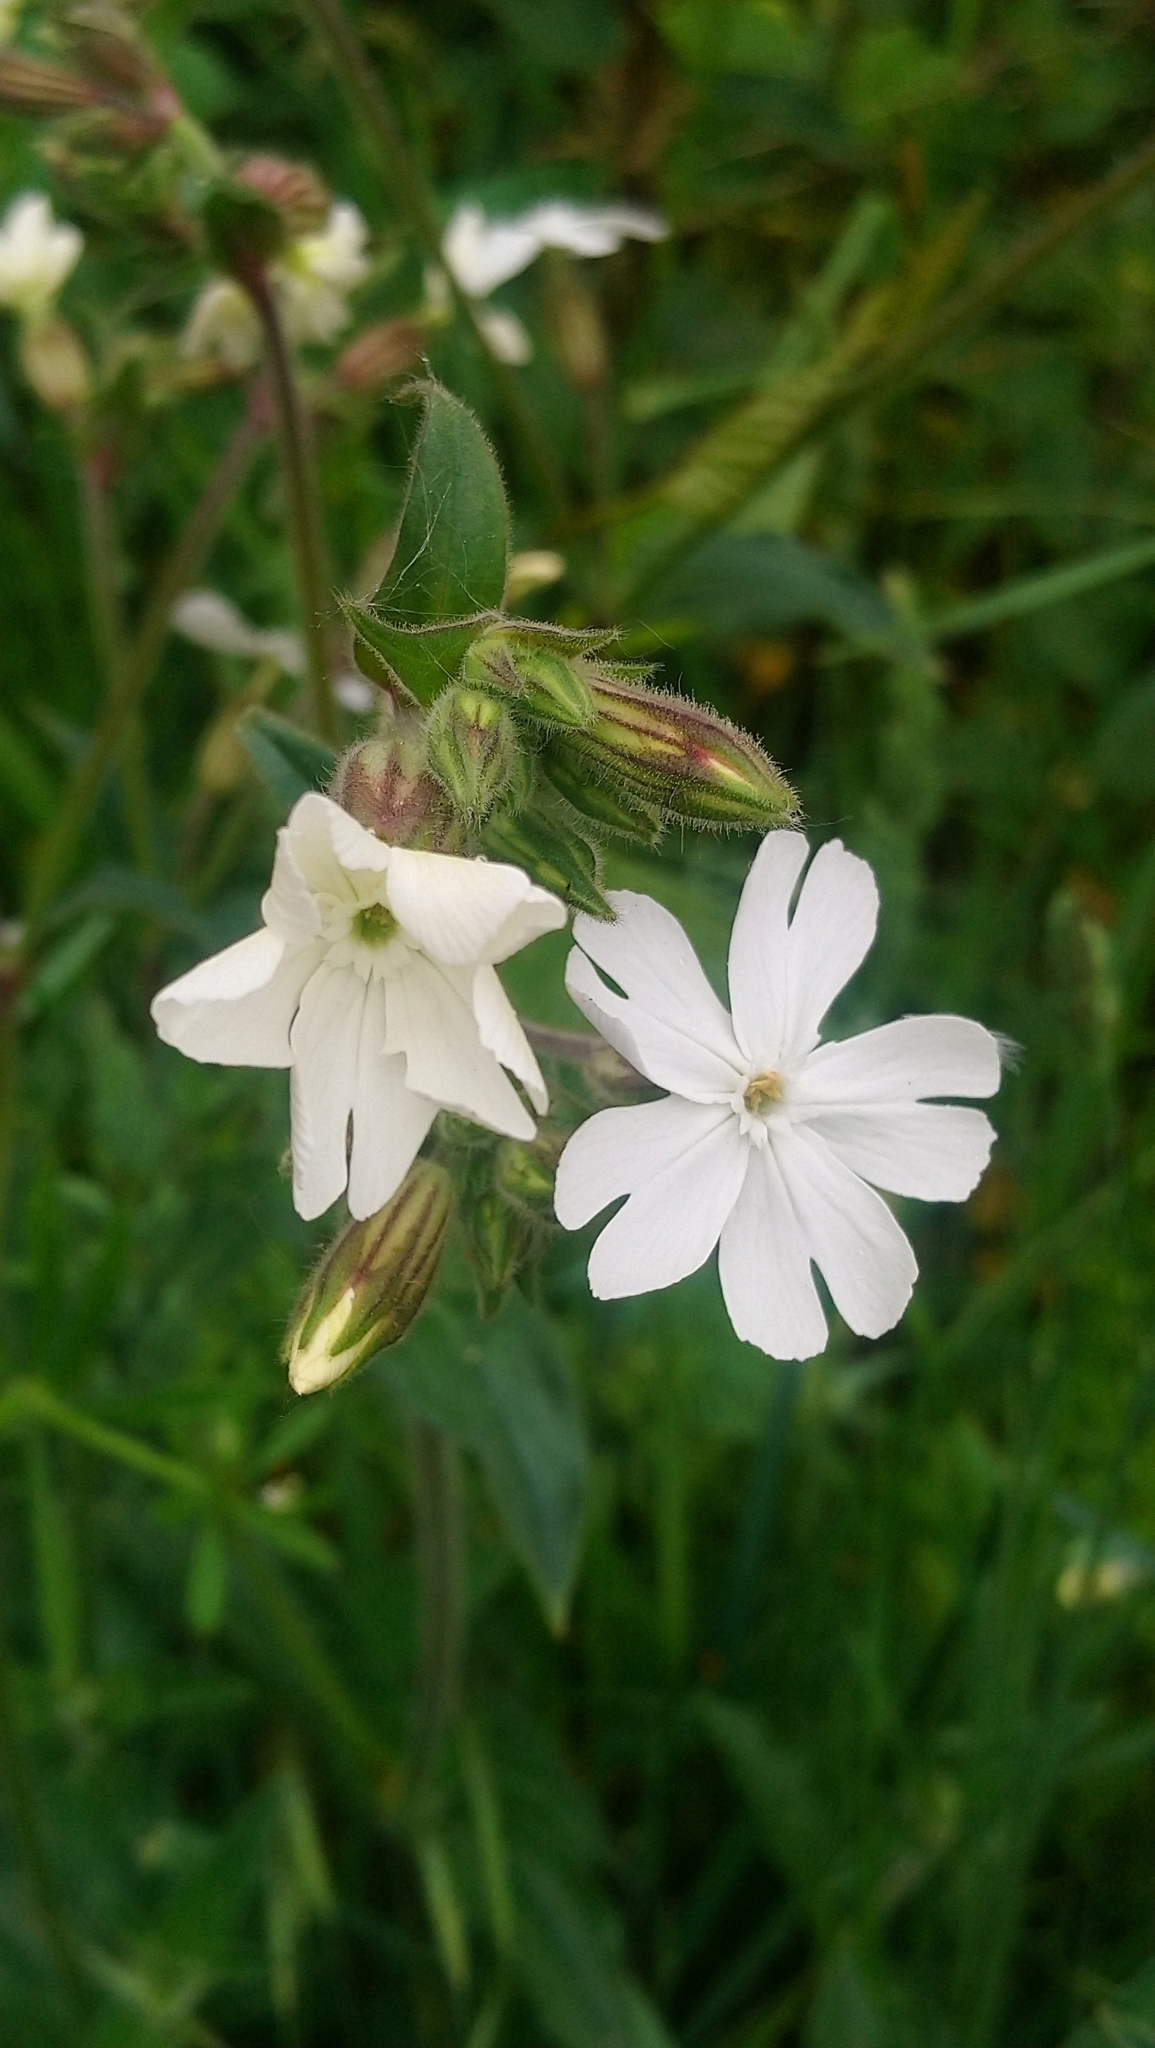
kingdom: Plantae
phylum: Tracheophyta
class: Magnoliopsida
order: Caryophyllales
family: Caryophyllaceae
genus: Silene
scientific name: Silene latifolia
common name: White campion
